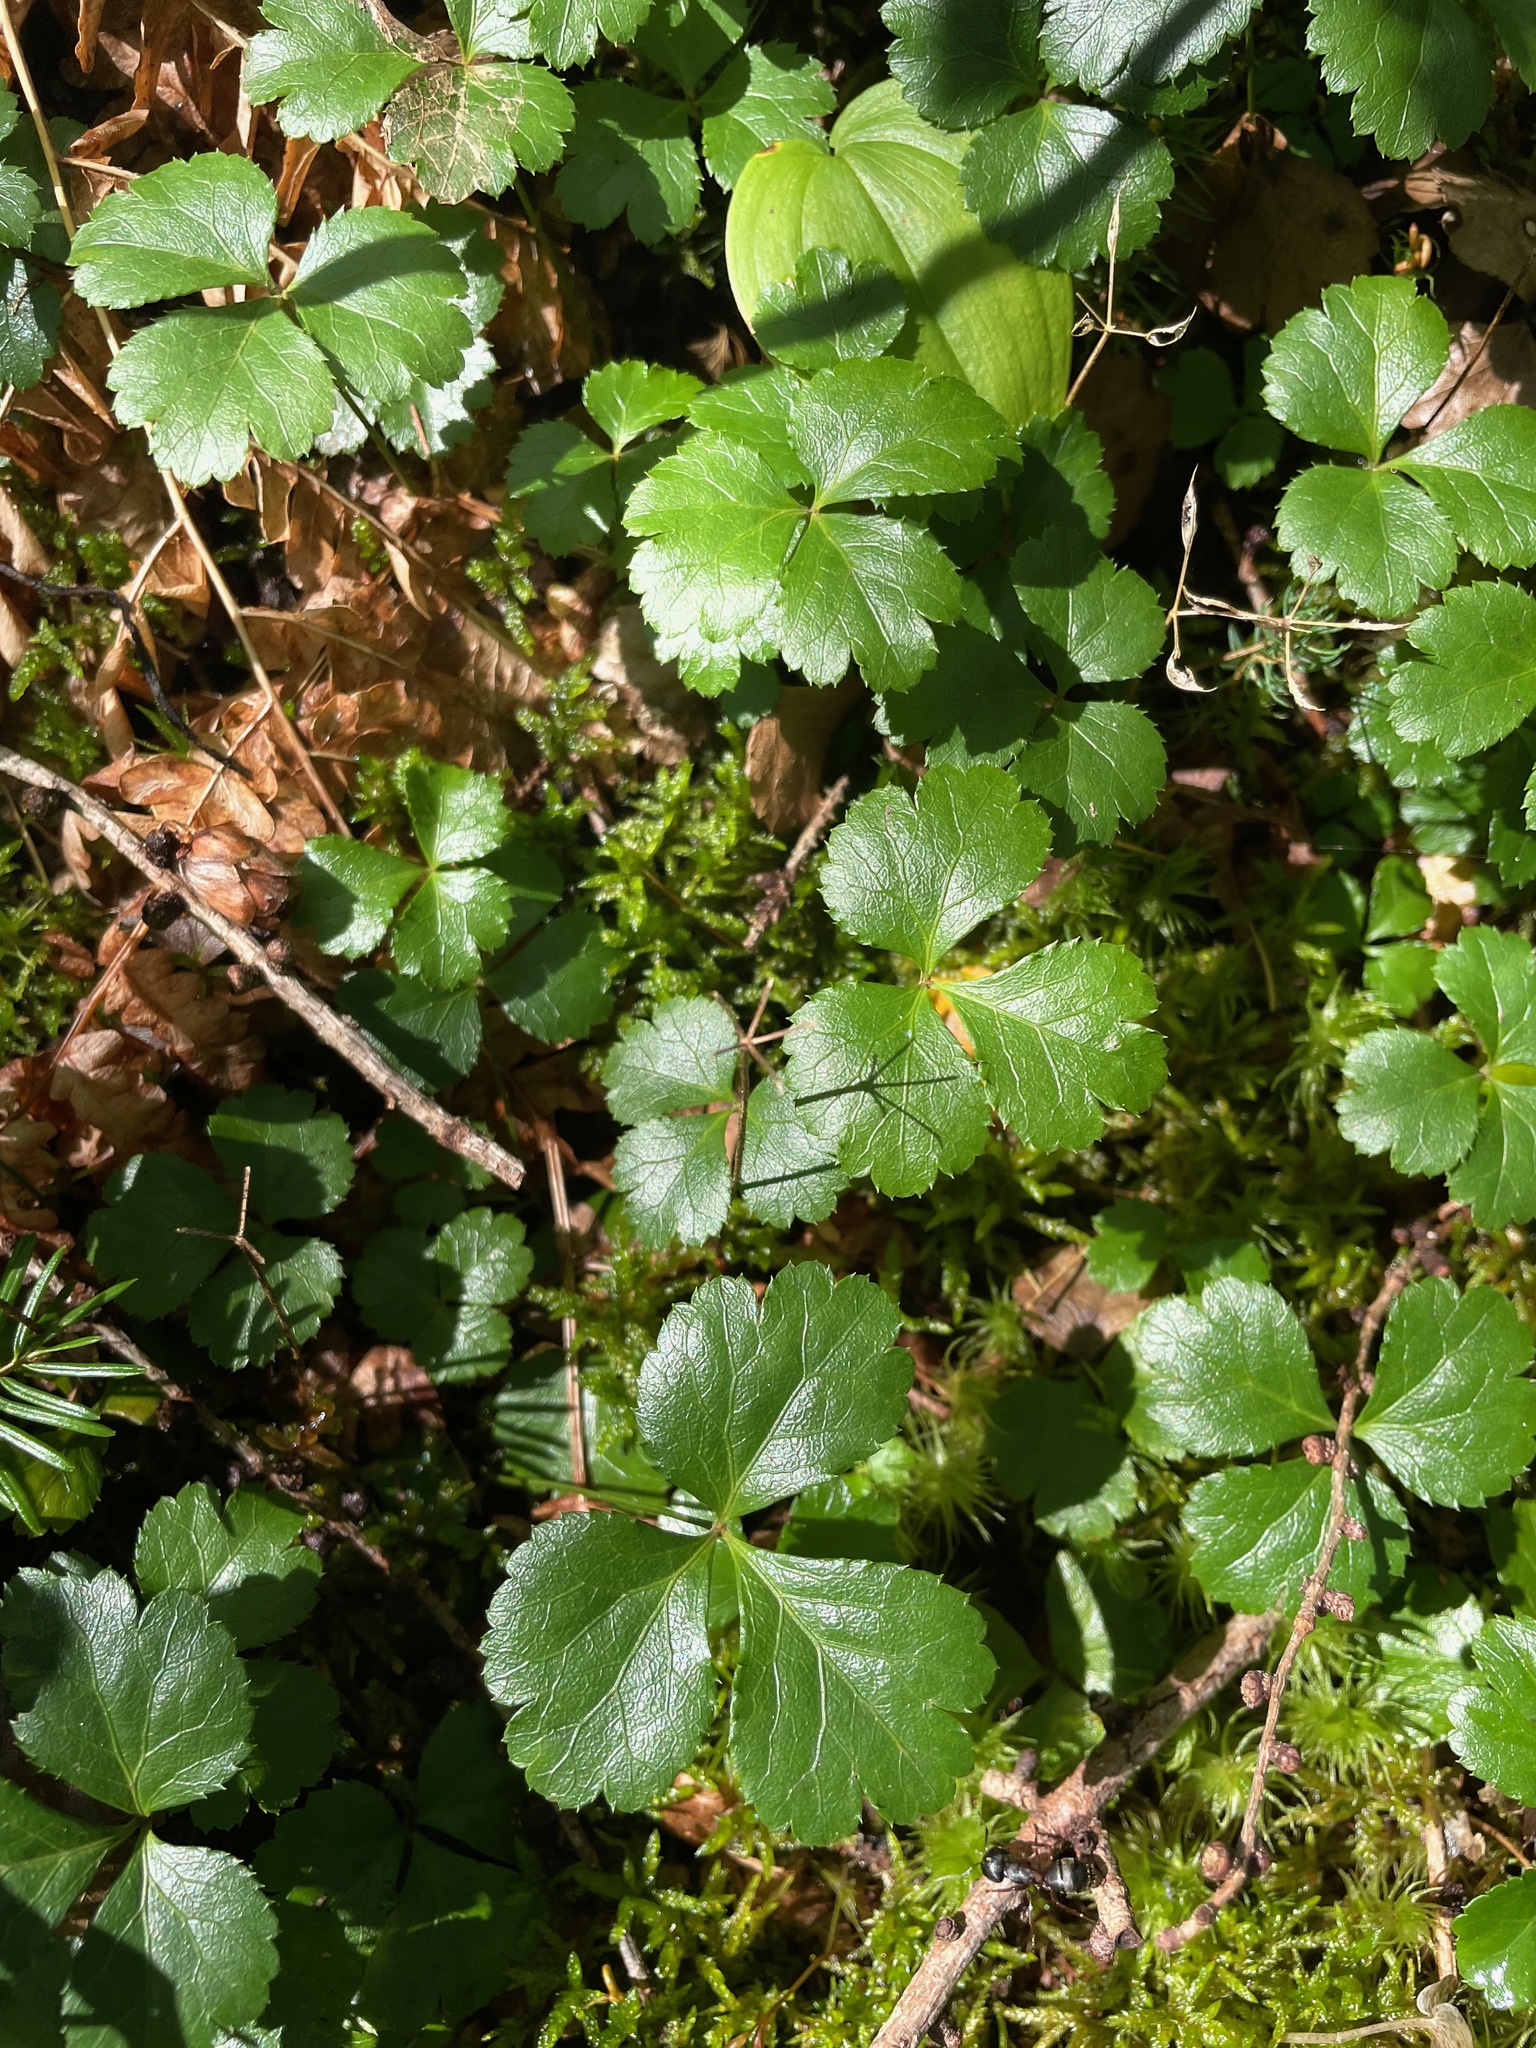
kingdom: Plantae
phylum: Tracheophyta
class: Magnoliopsida
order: Ranunculales
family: Ranunculaceae
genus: Coptis
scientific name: Coptis trifolia
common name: Canker-root
